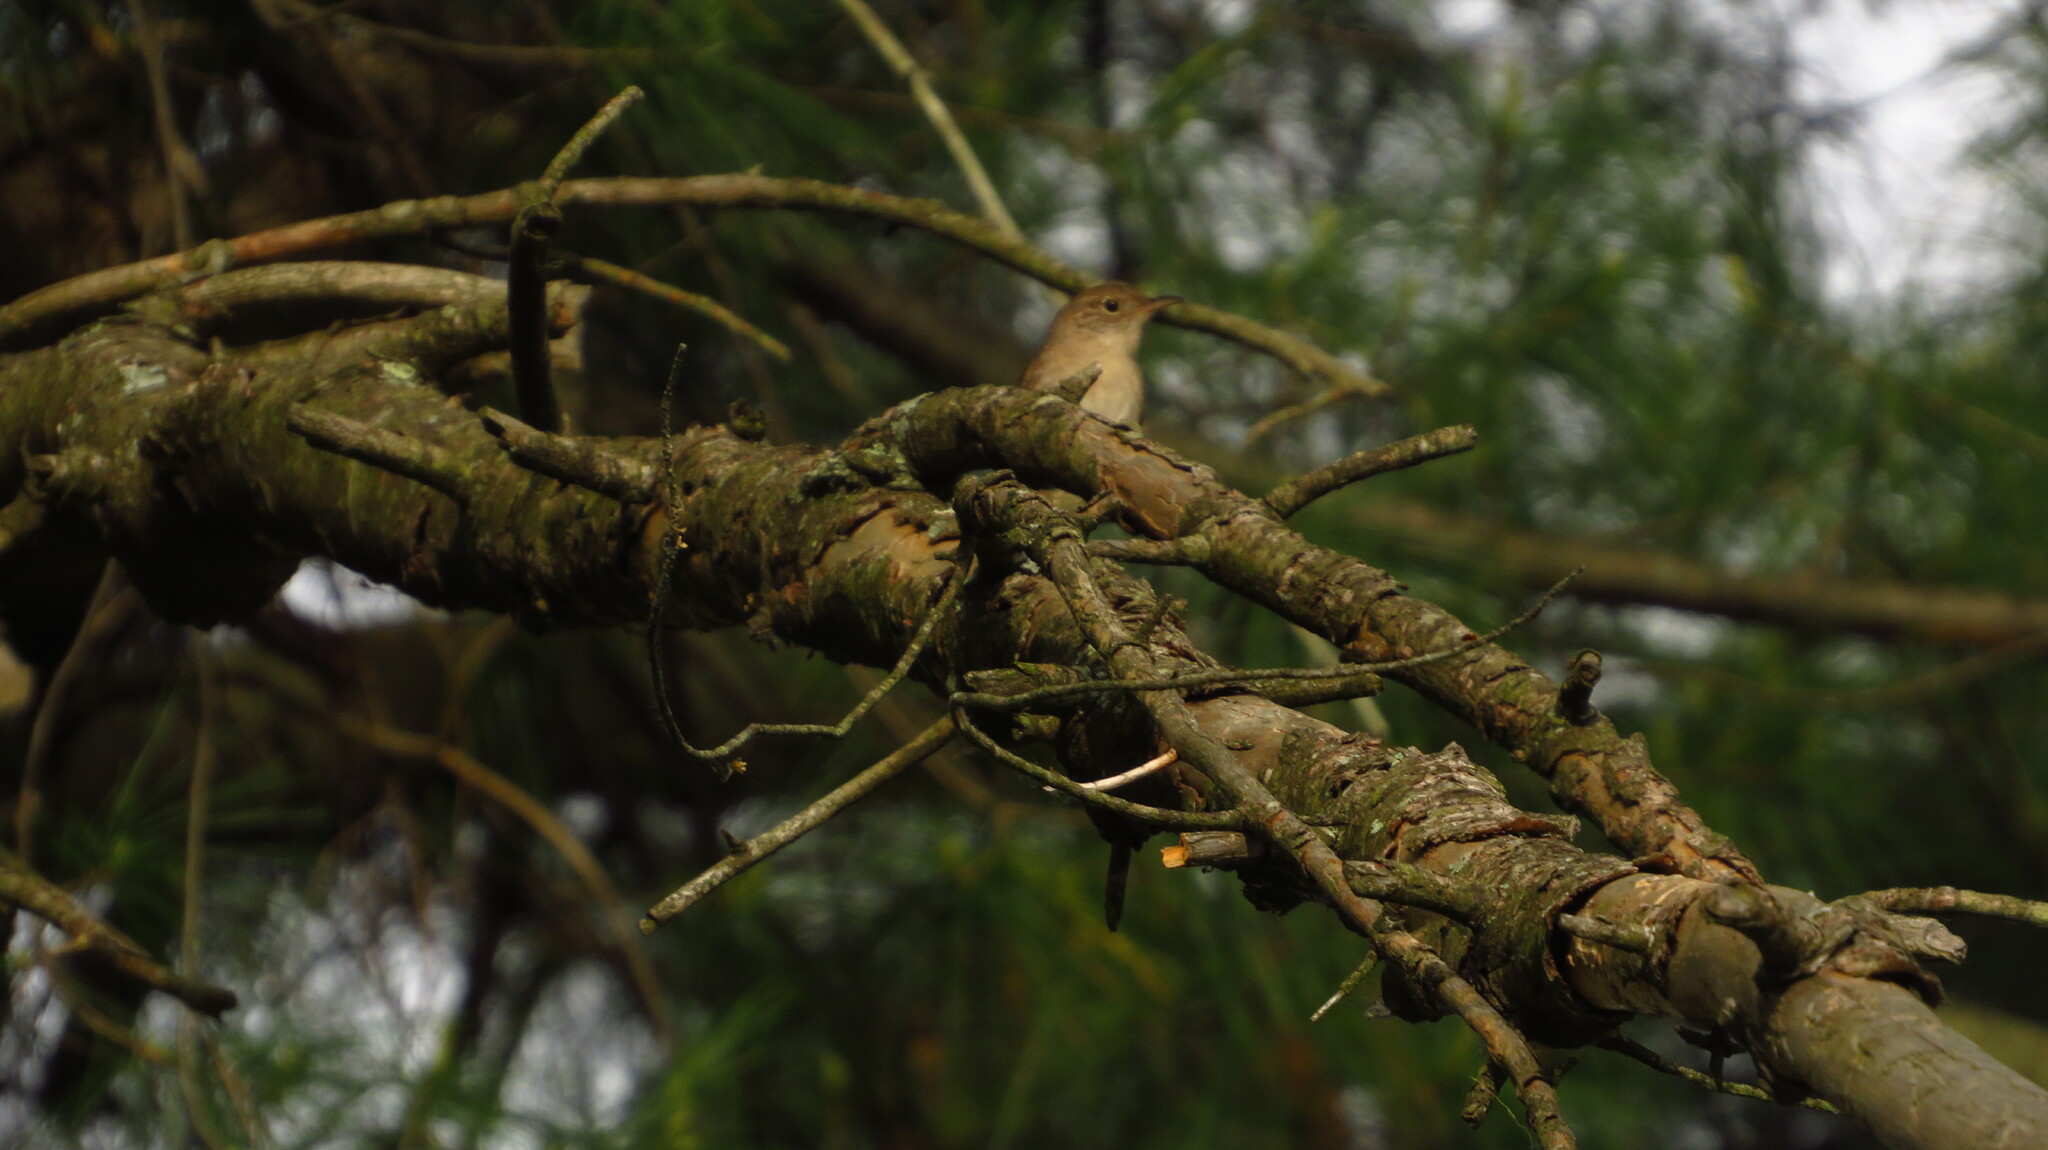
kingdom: Animalia
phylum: Chordata
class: Aves
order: Passeriformes
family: Troglodytidae
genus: Troglodytes
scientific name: Troglodytes aedon
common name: House wren
